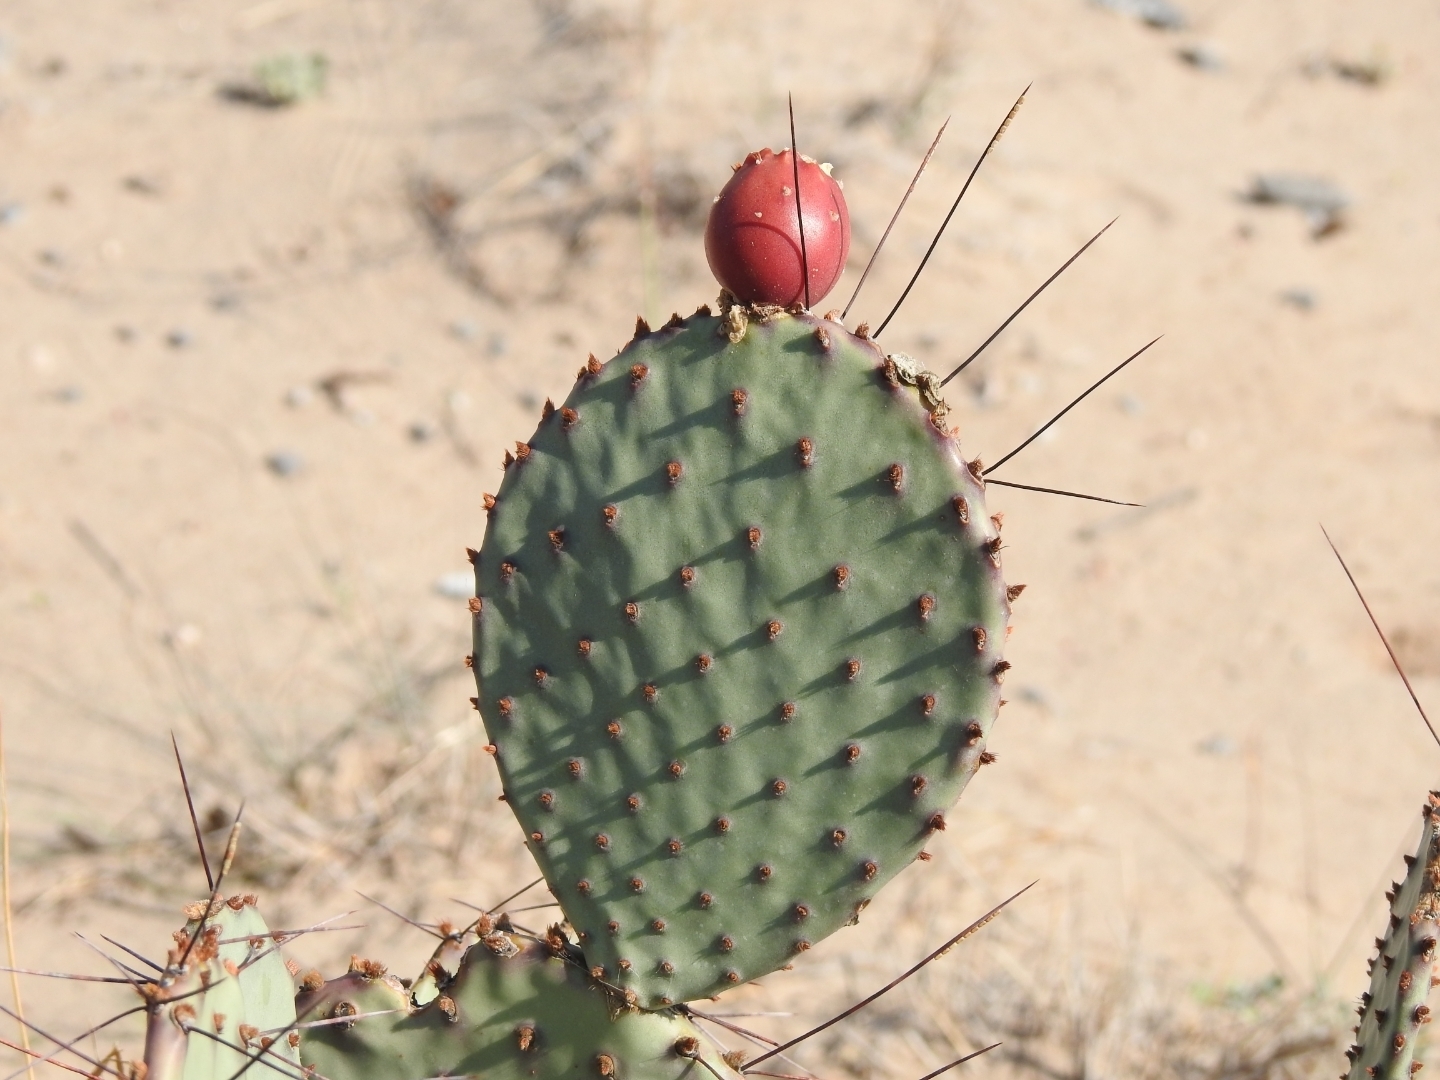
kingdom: Plantae
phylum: Tracheophyta
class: Magnoliopsida
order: Caryophyllales
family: Cactaceae
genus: Opuntia
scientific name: Opuntia macrocentra
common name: Purple prickly-pear
